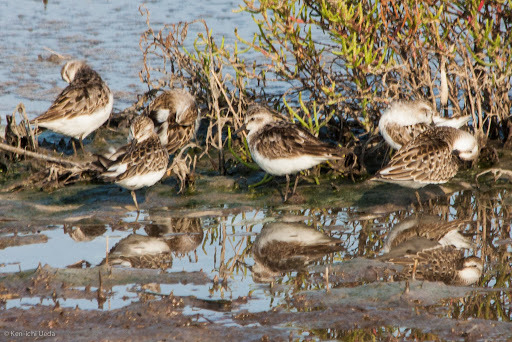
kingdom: Animalia
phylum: Chordata
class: Aves
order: Charadriiformes
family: Scolopacidae
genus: Calidris
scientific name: Calidris minutilla
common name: Least sandpiper
